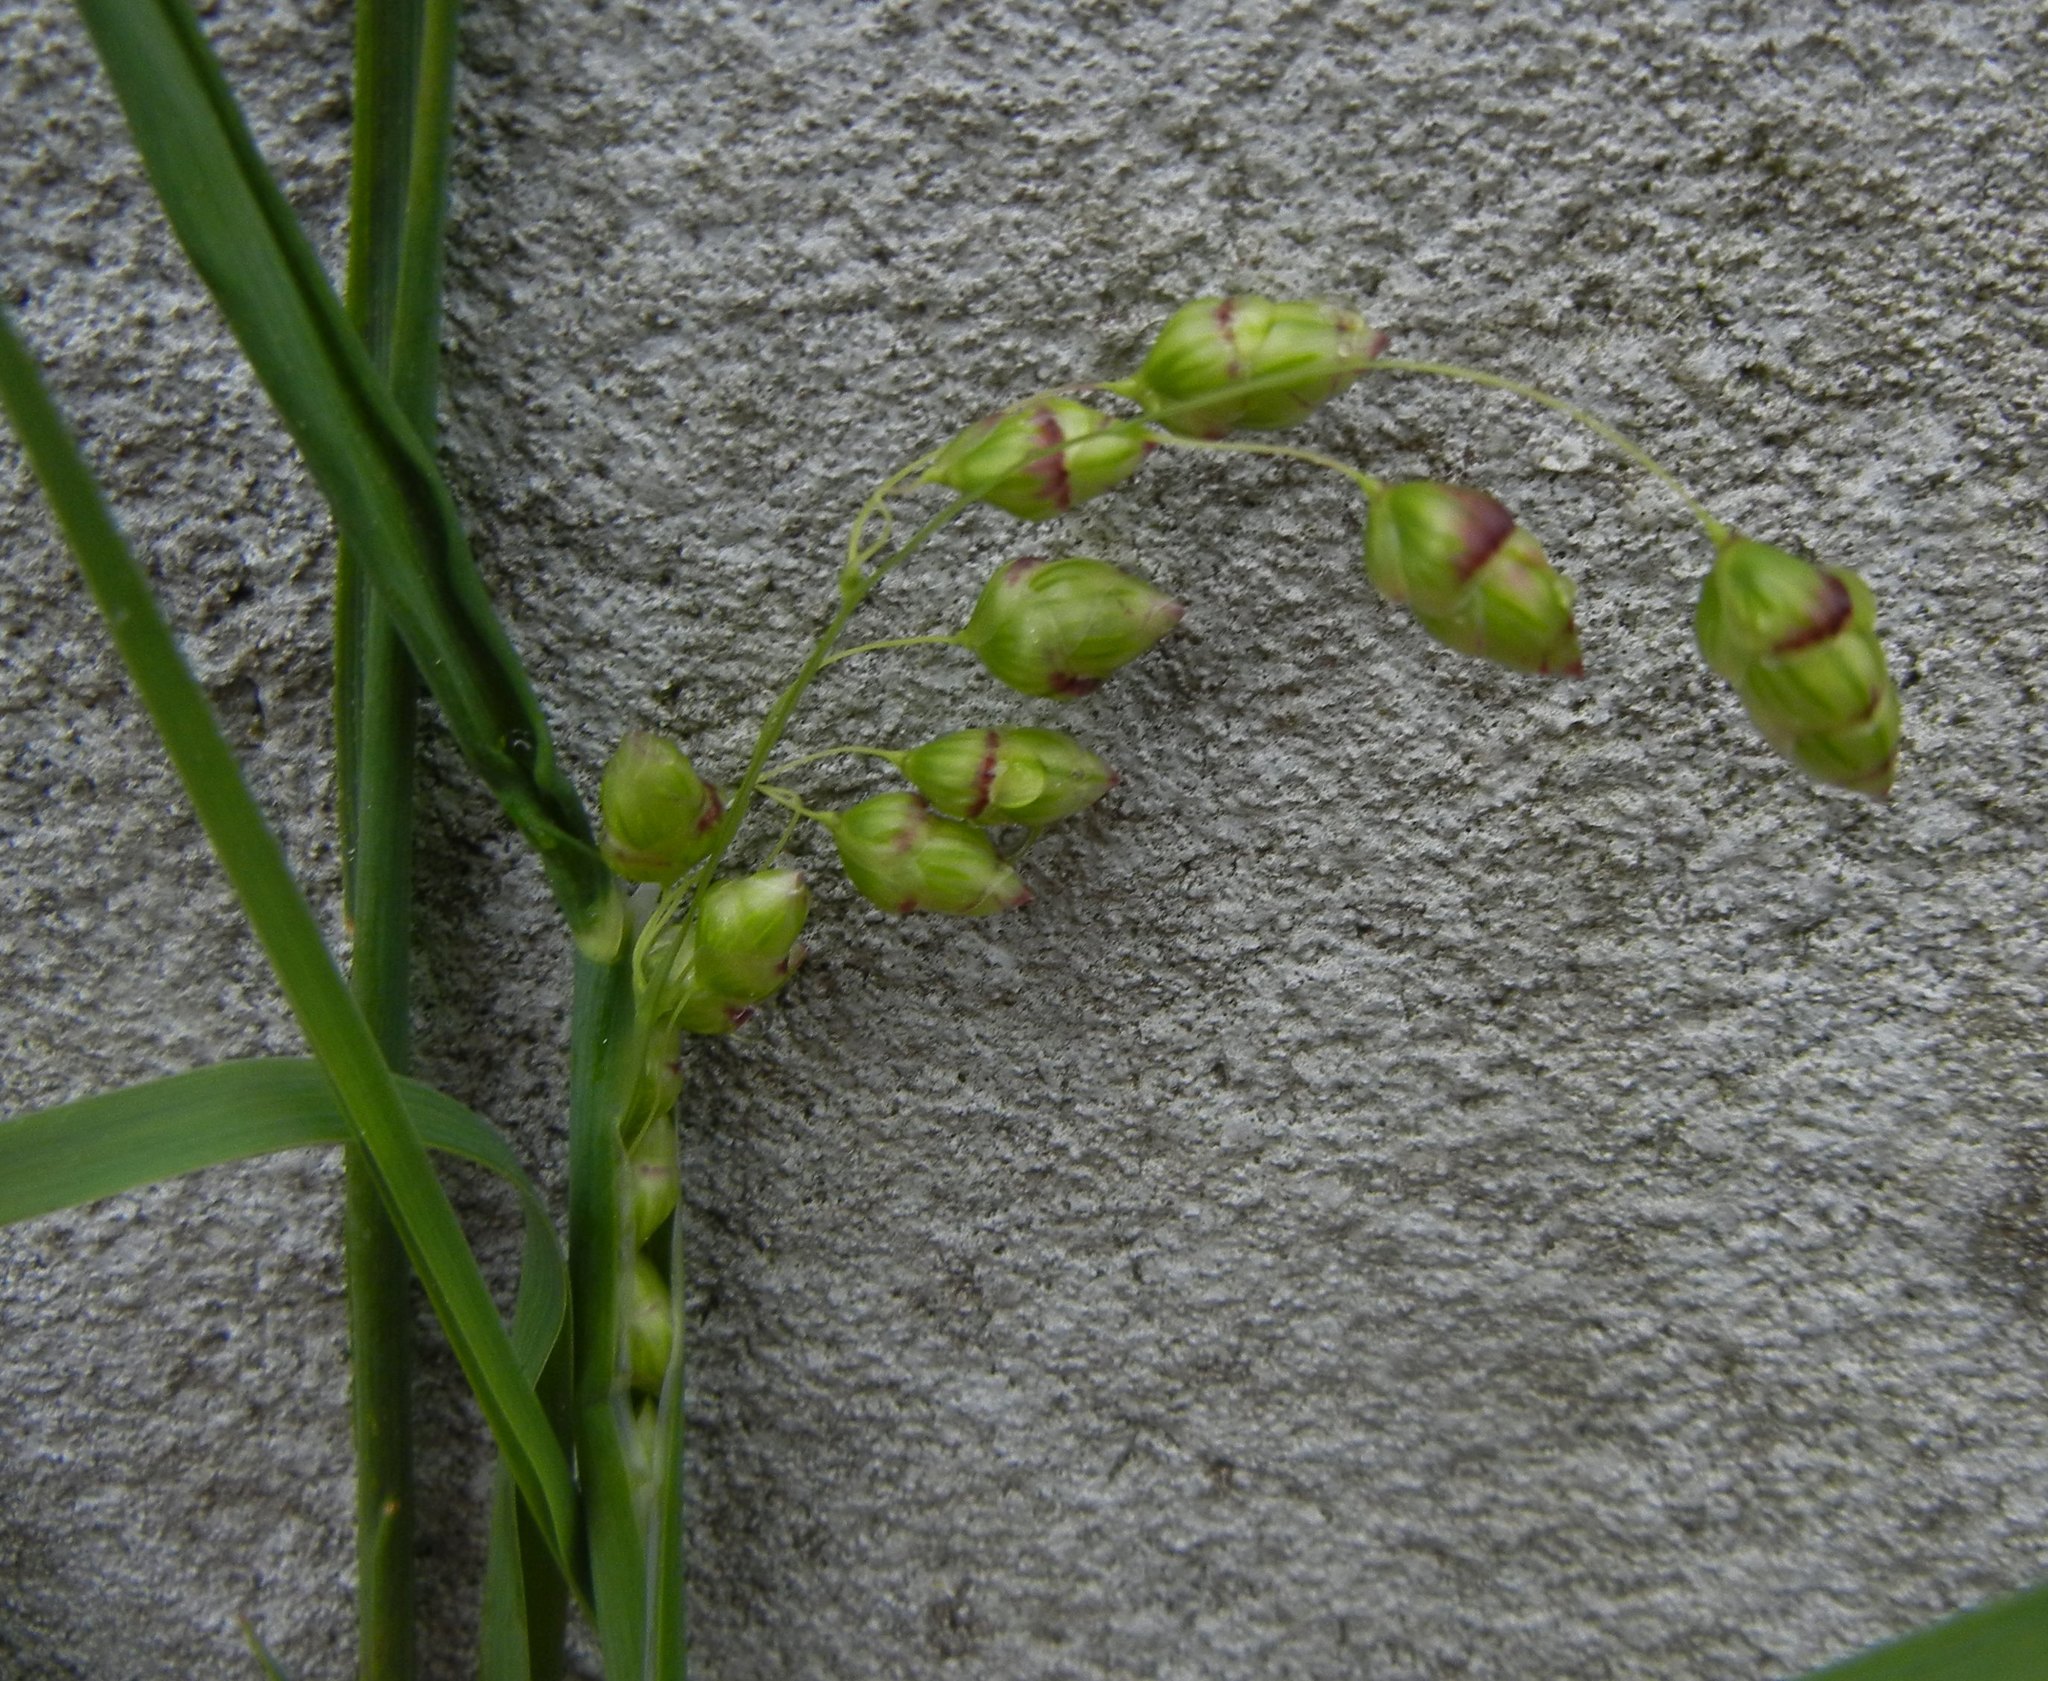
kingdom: Plantae
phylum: Tracheophyta
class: Liliopsida
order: Poales
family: Poaceae
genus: Briza
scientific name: Briza maxima
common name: Big quakinggrass
